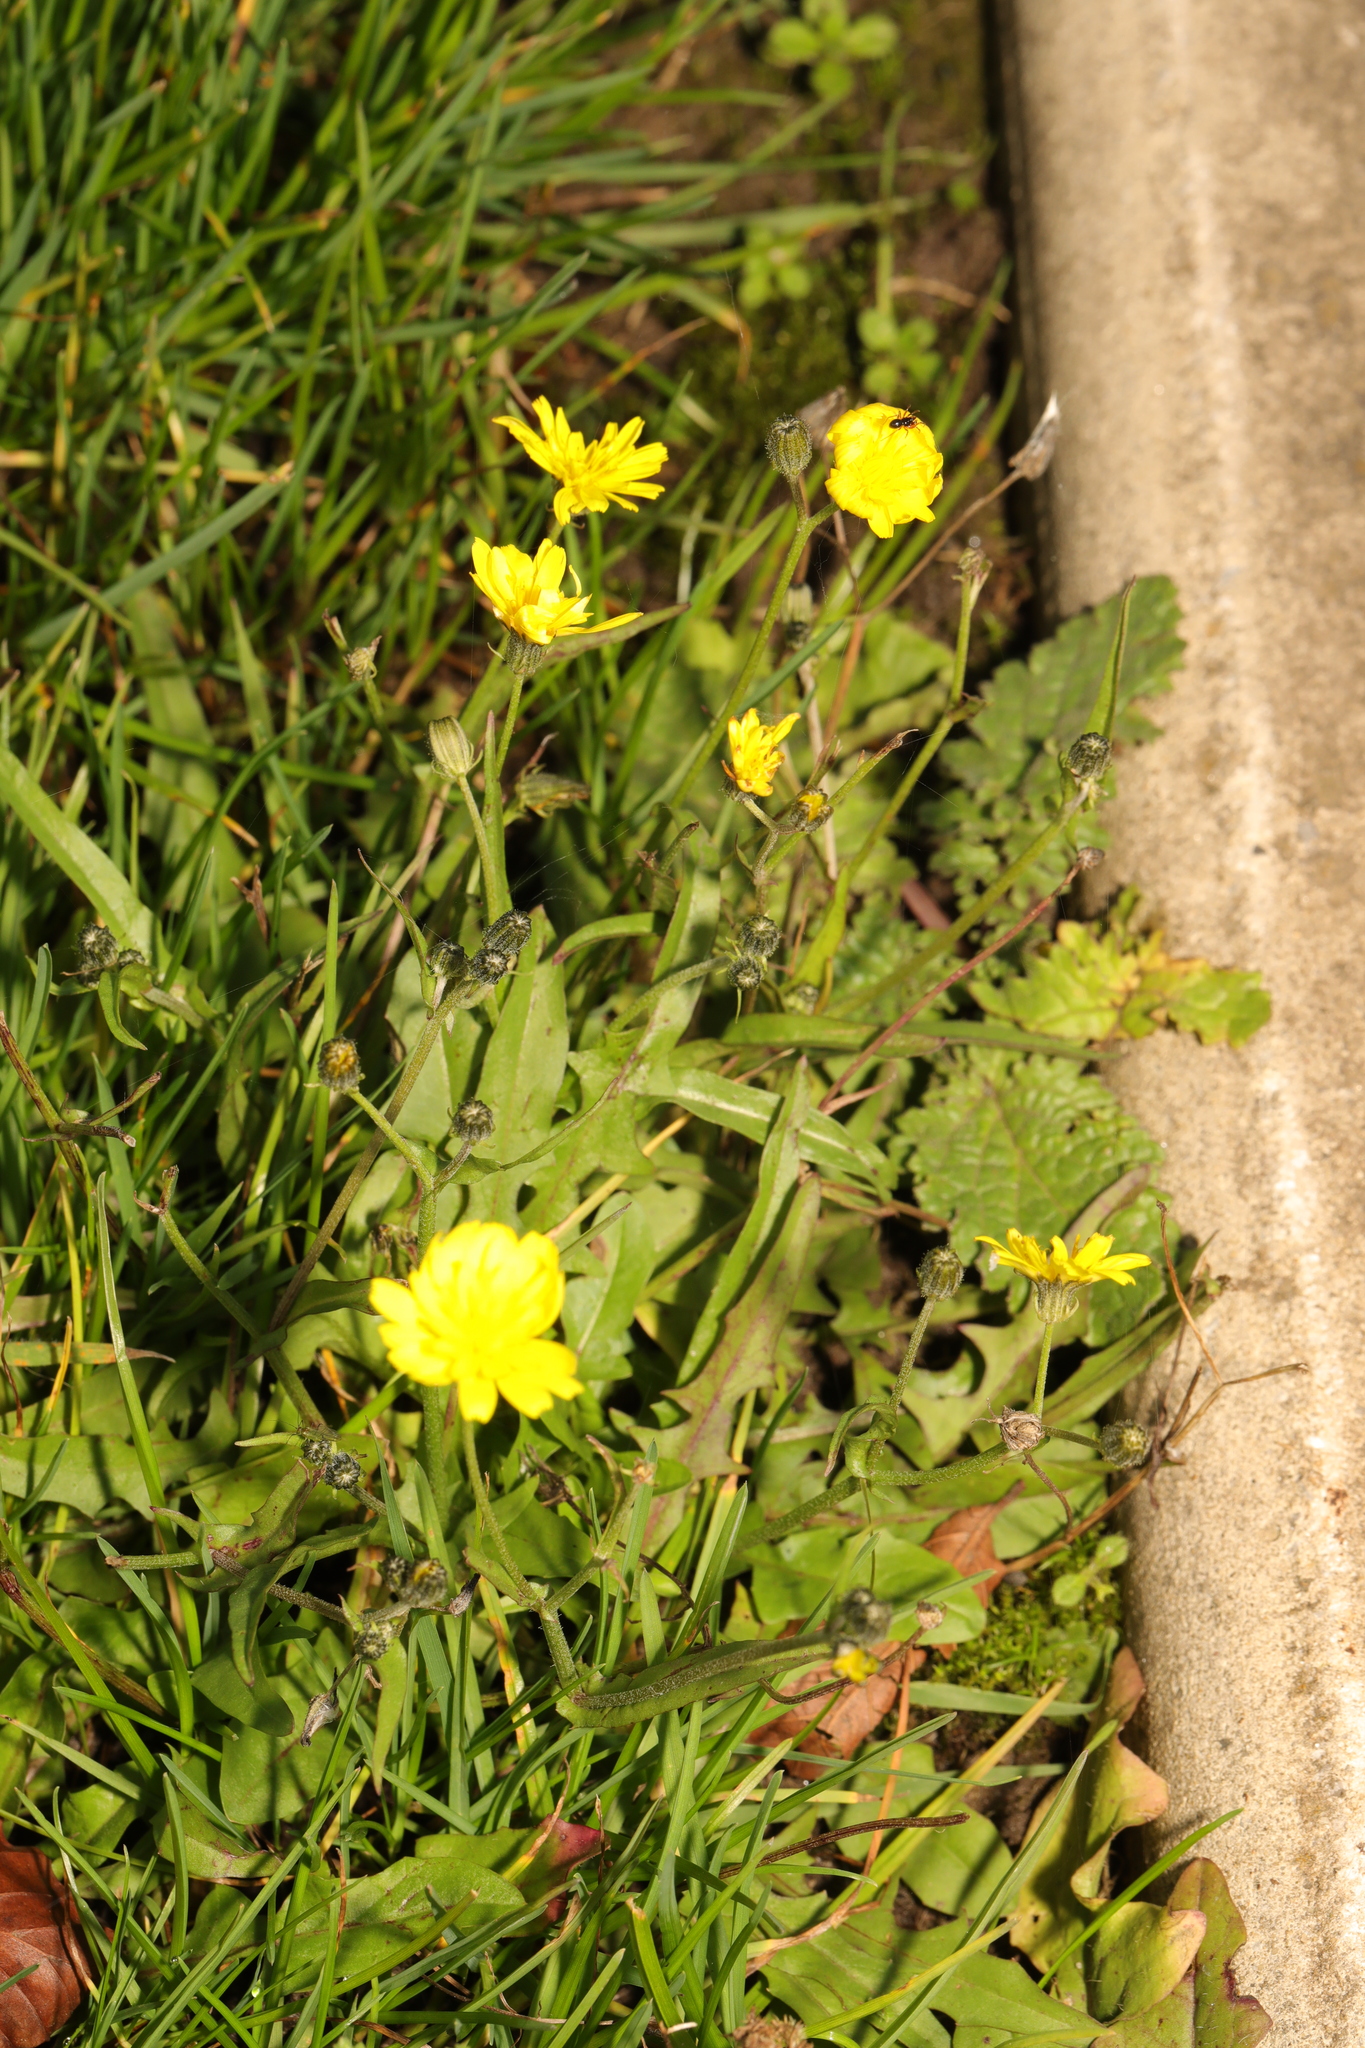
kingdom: Plantae
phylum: Tracheophyta
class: Magnoliopsida
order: Asterales
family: Asteraceae
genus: Crepis
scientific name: Crepis capillaris
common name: Smooth hawksbeard
